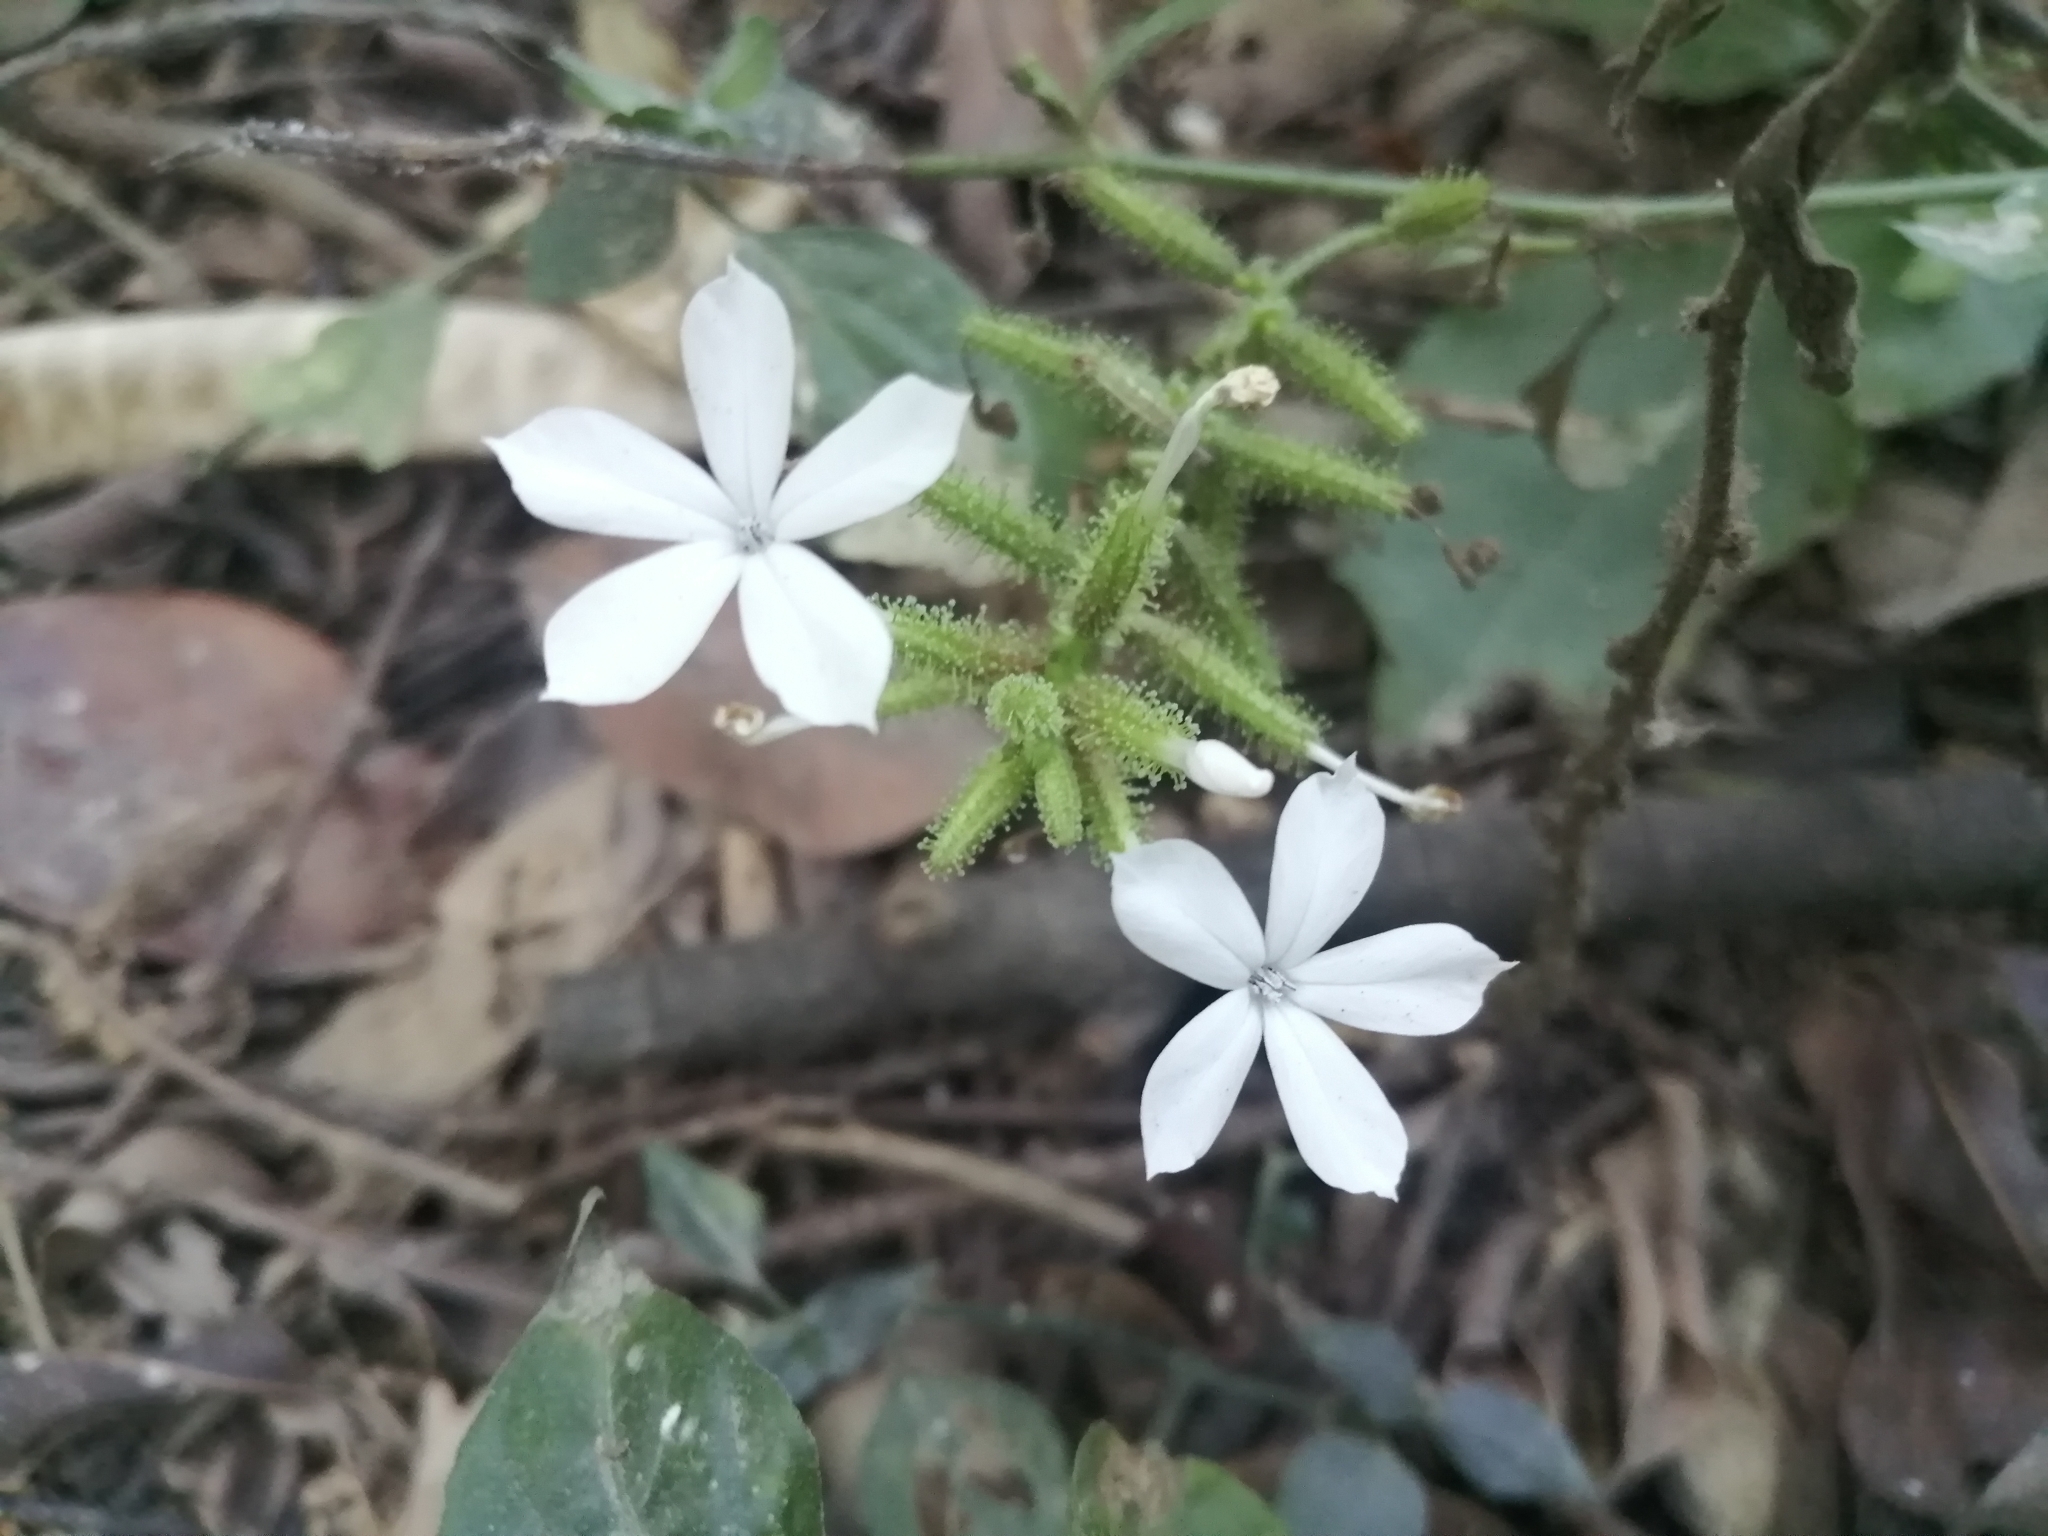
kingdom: Plantae
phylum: Tracheophyta
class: Magnoliopsida
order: Caryophyllales
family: Plumbaginaceae
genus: Plumbago
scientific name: Plumbago zeylanica
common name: Doctorbush
